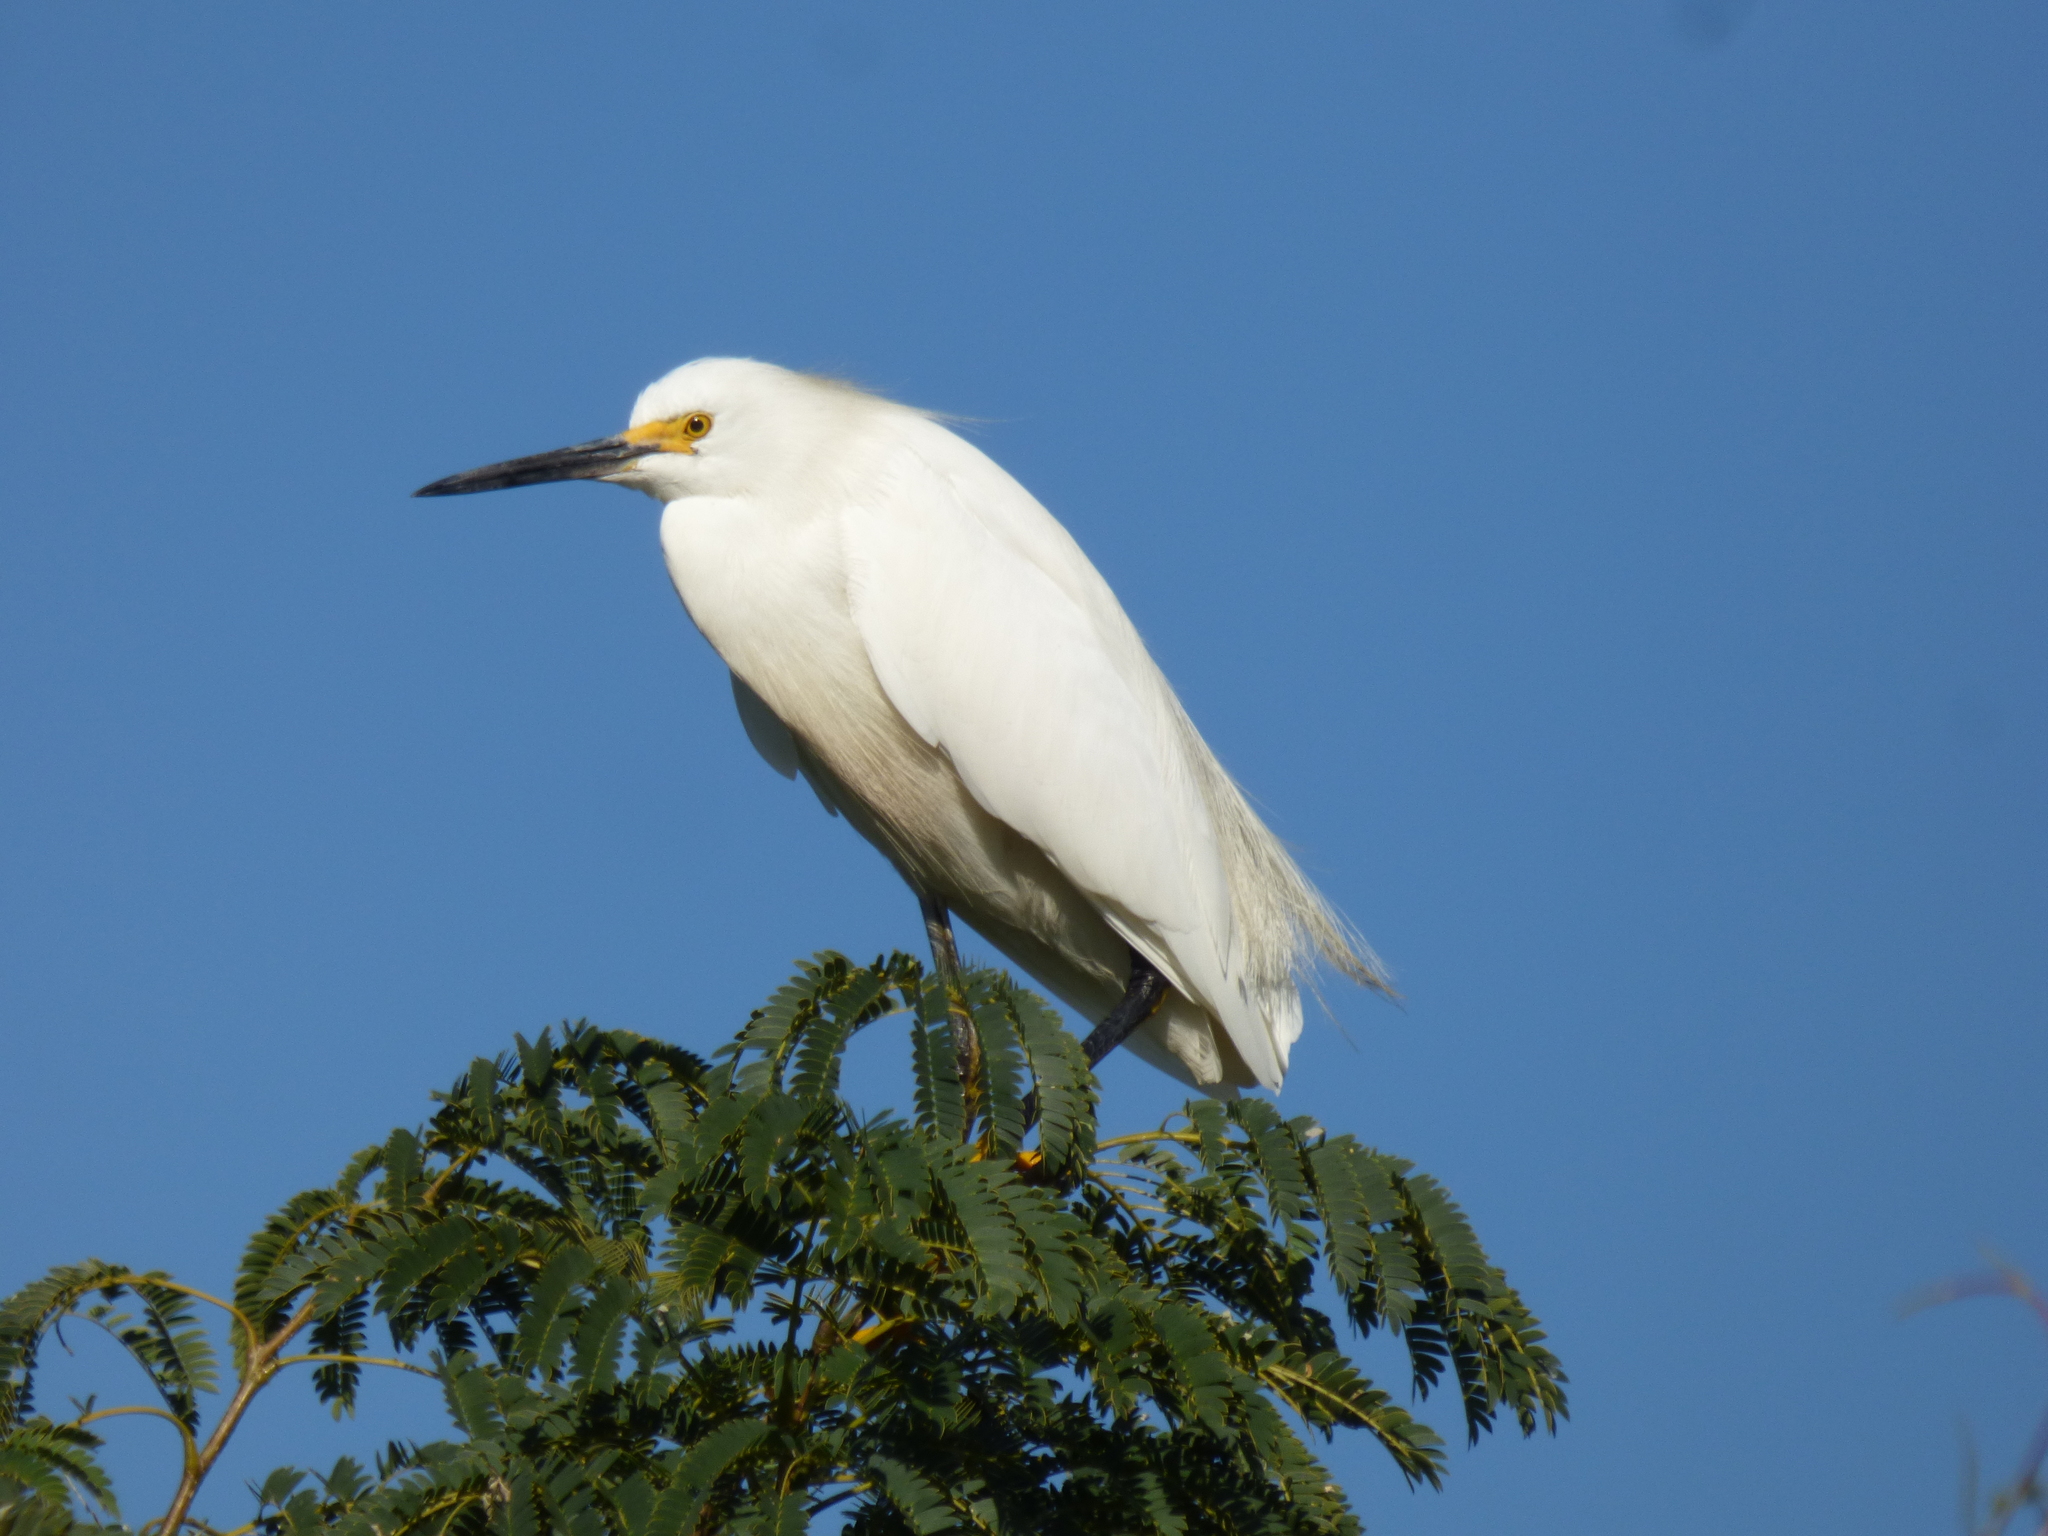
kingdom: Animalia
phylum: Chordata
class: Aves
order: Pelecaniformes
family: Ardeidae
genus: Egretta
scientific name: Egretta thula
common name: Snowy egret
